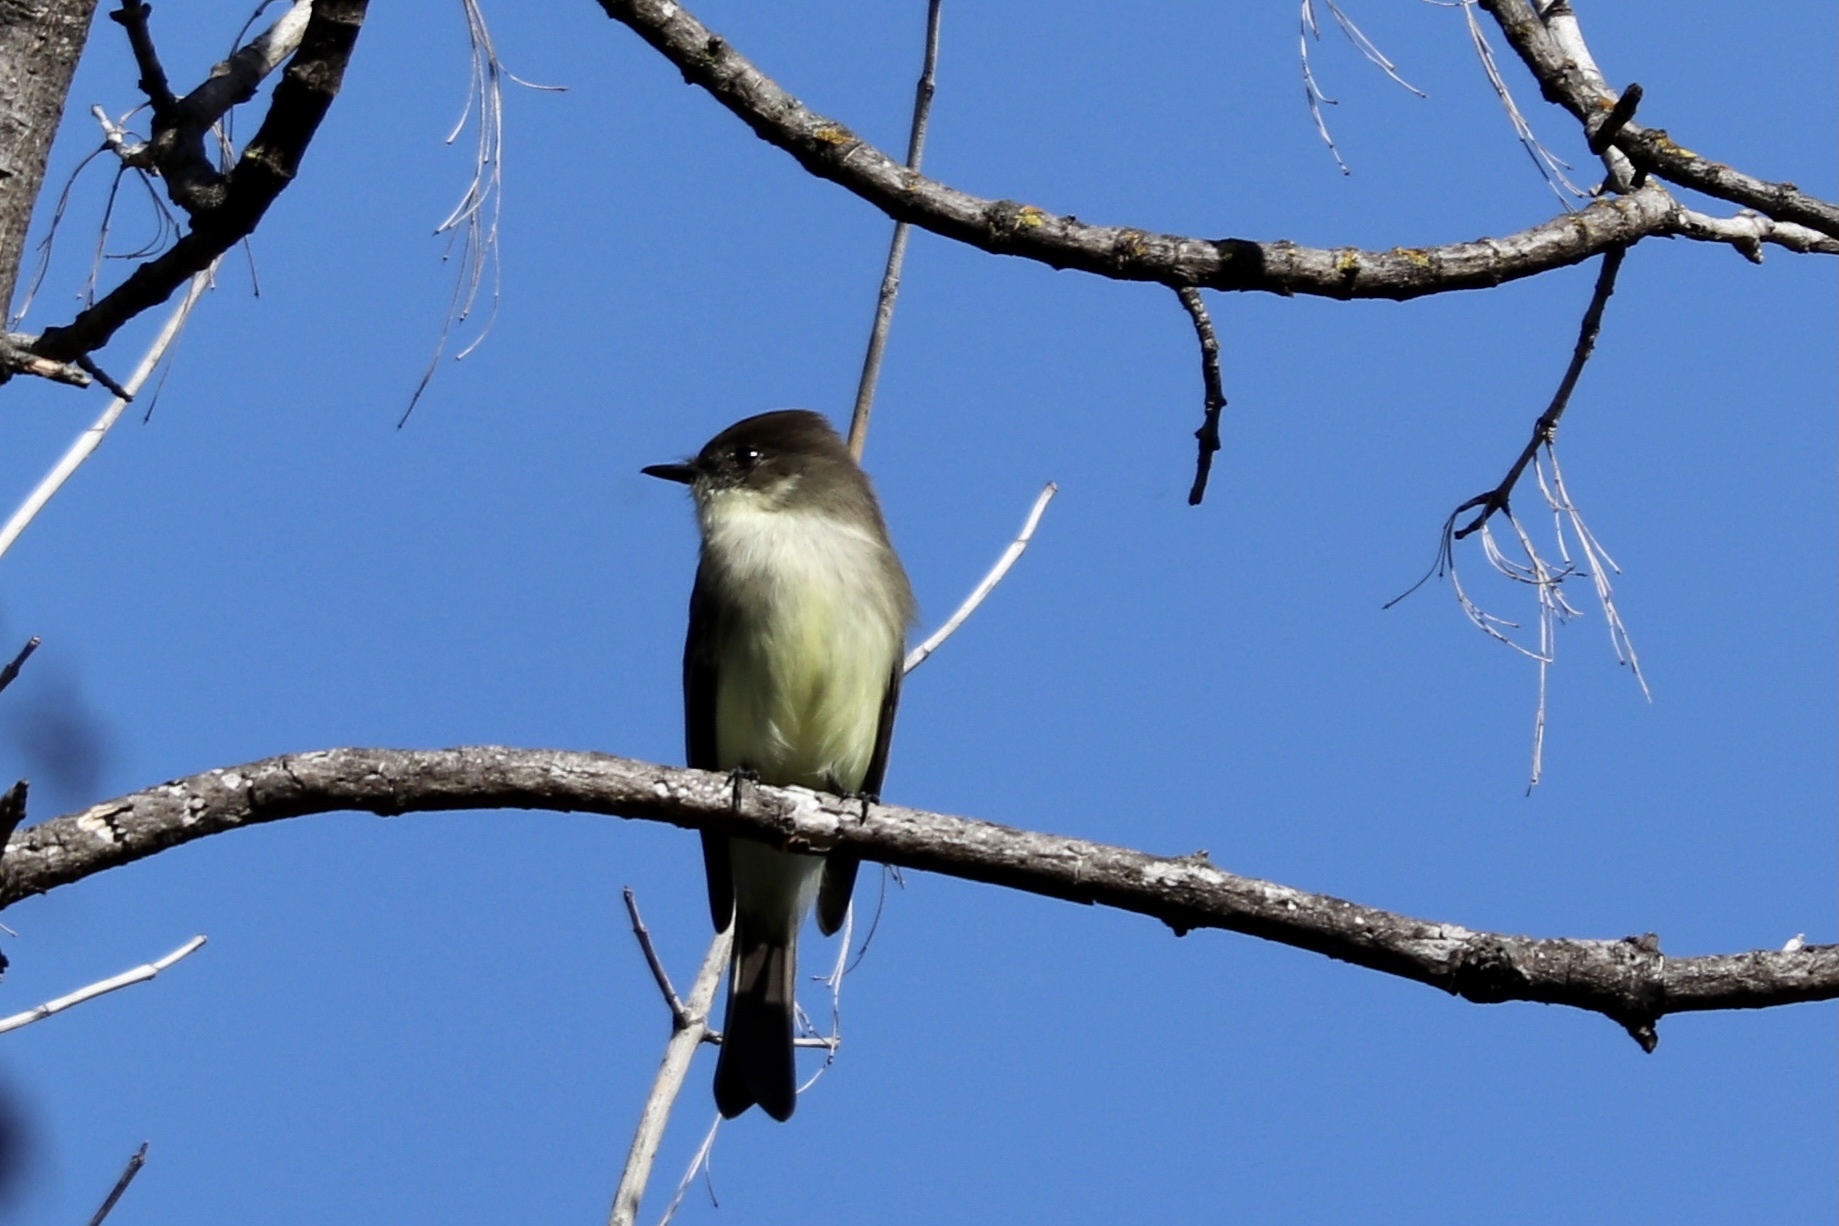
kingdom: Animalia
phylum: Chordata
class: Aves
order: Passeriformes
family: Tyrannidae
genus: Sayornis
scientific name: Sayornis phoebe
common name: Eastern phoebe
